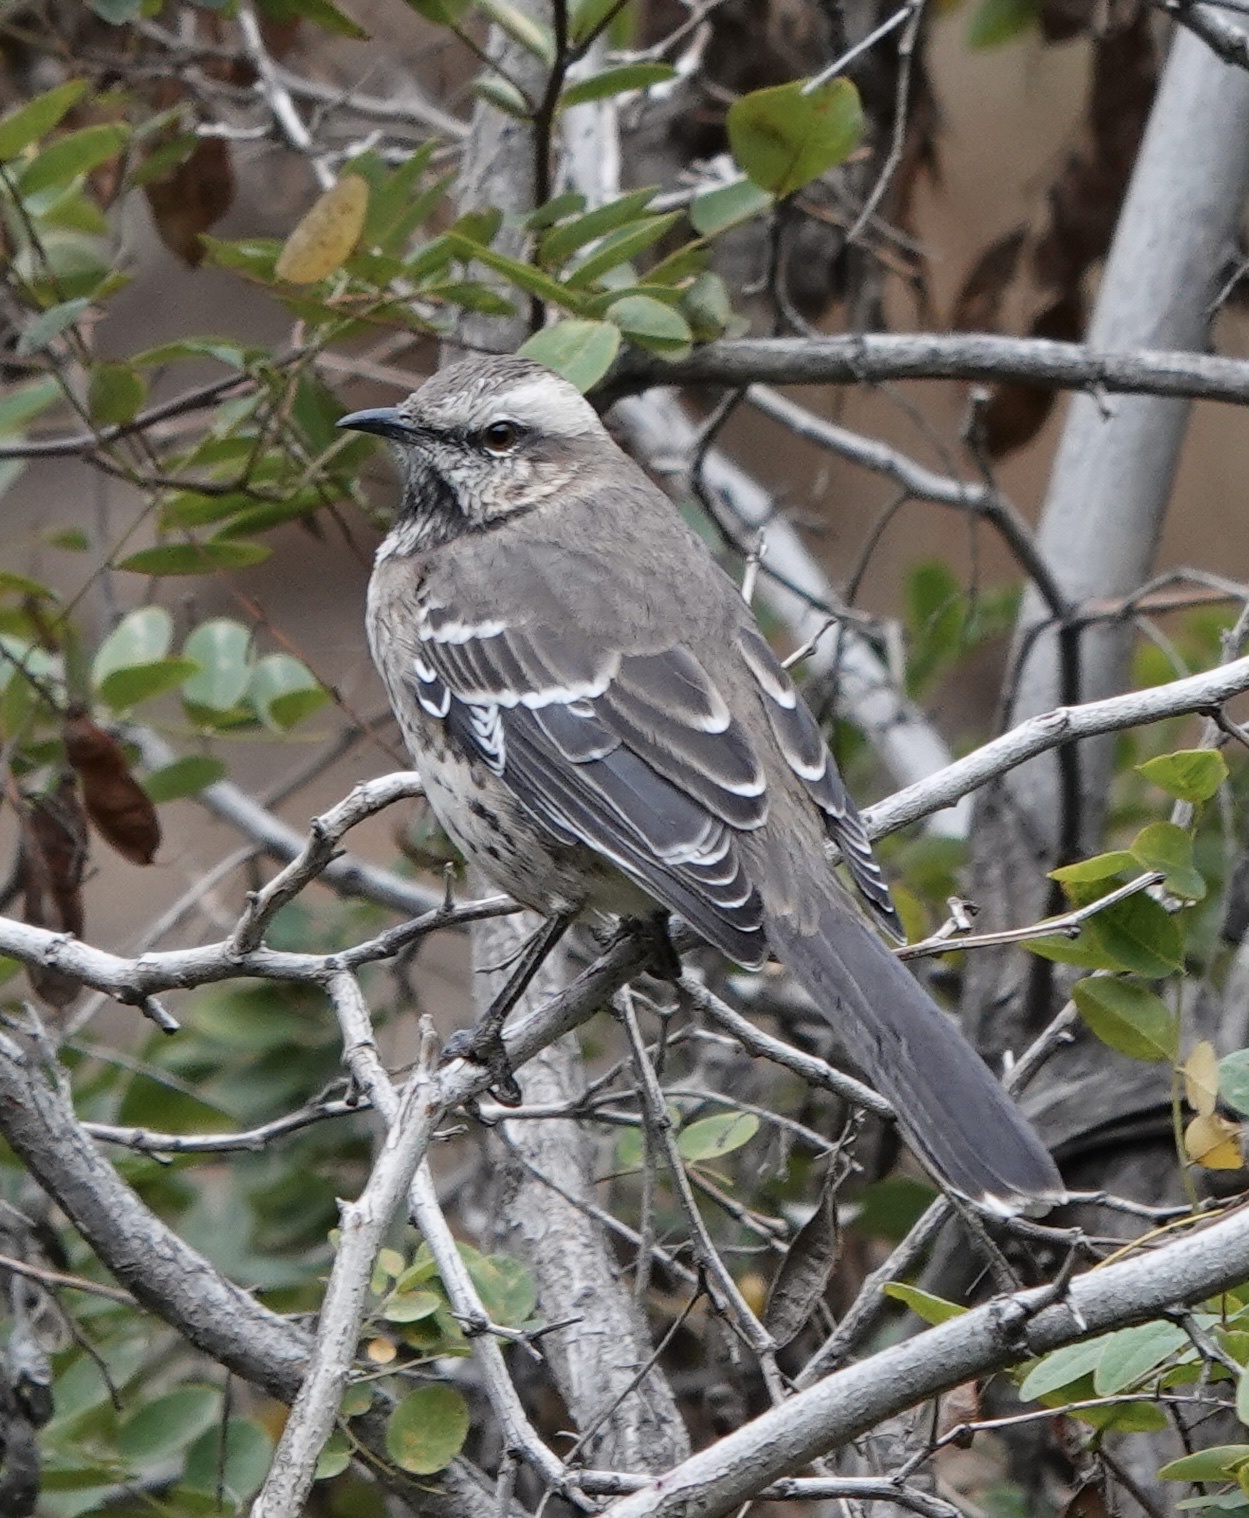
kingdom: Animalia
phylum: Chordata
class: Aves
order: Passeriformes
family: Mimidae
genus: Mimus
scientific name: Mimus thenca
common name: Chilean mockingbird
